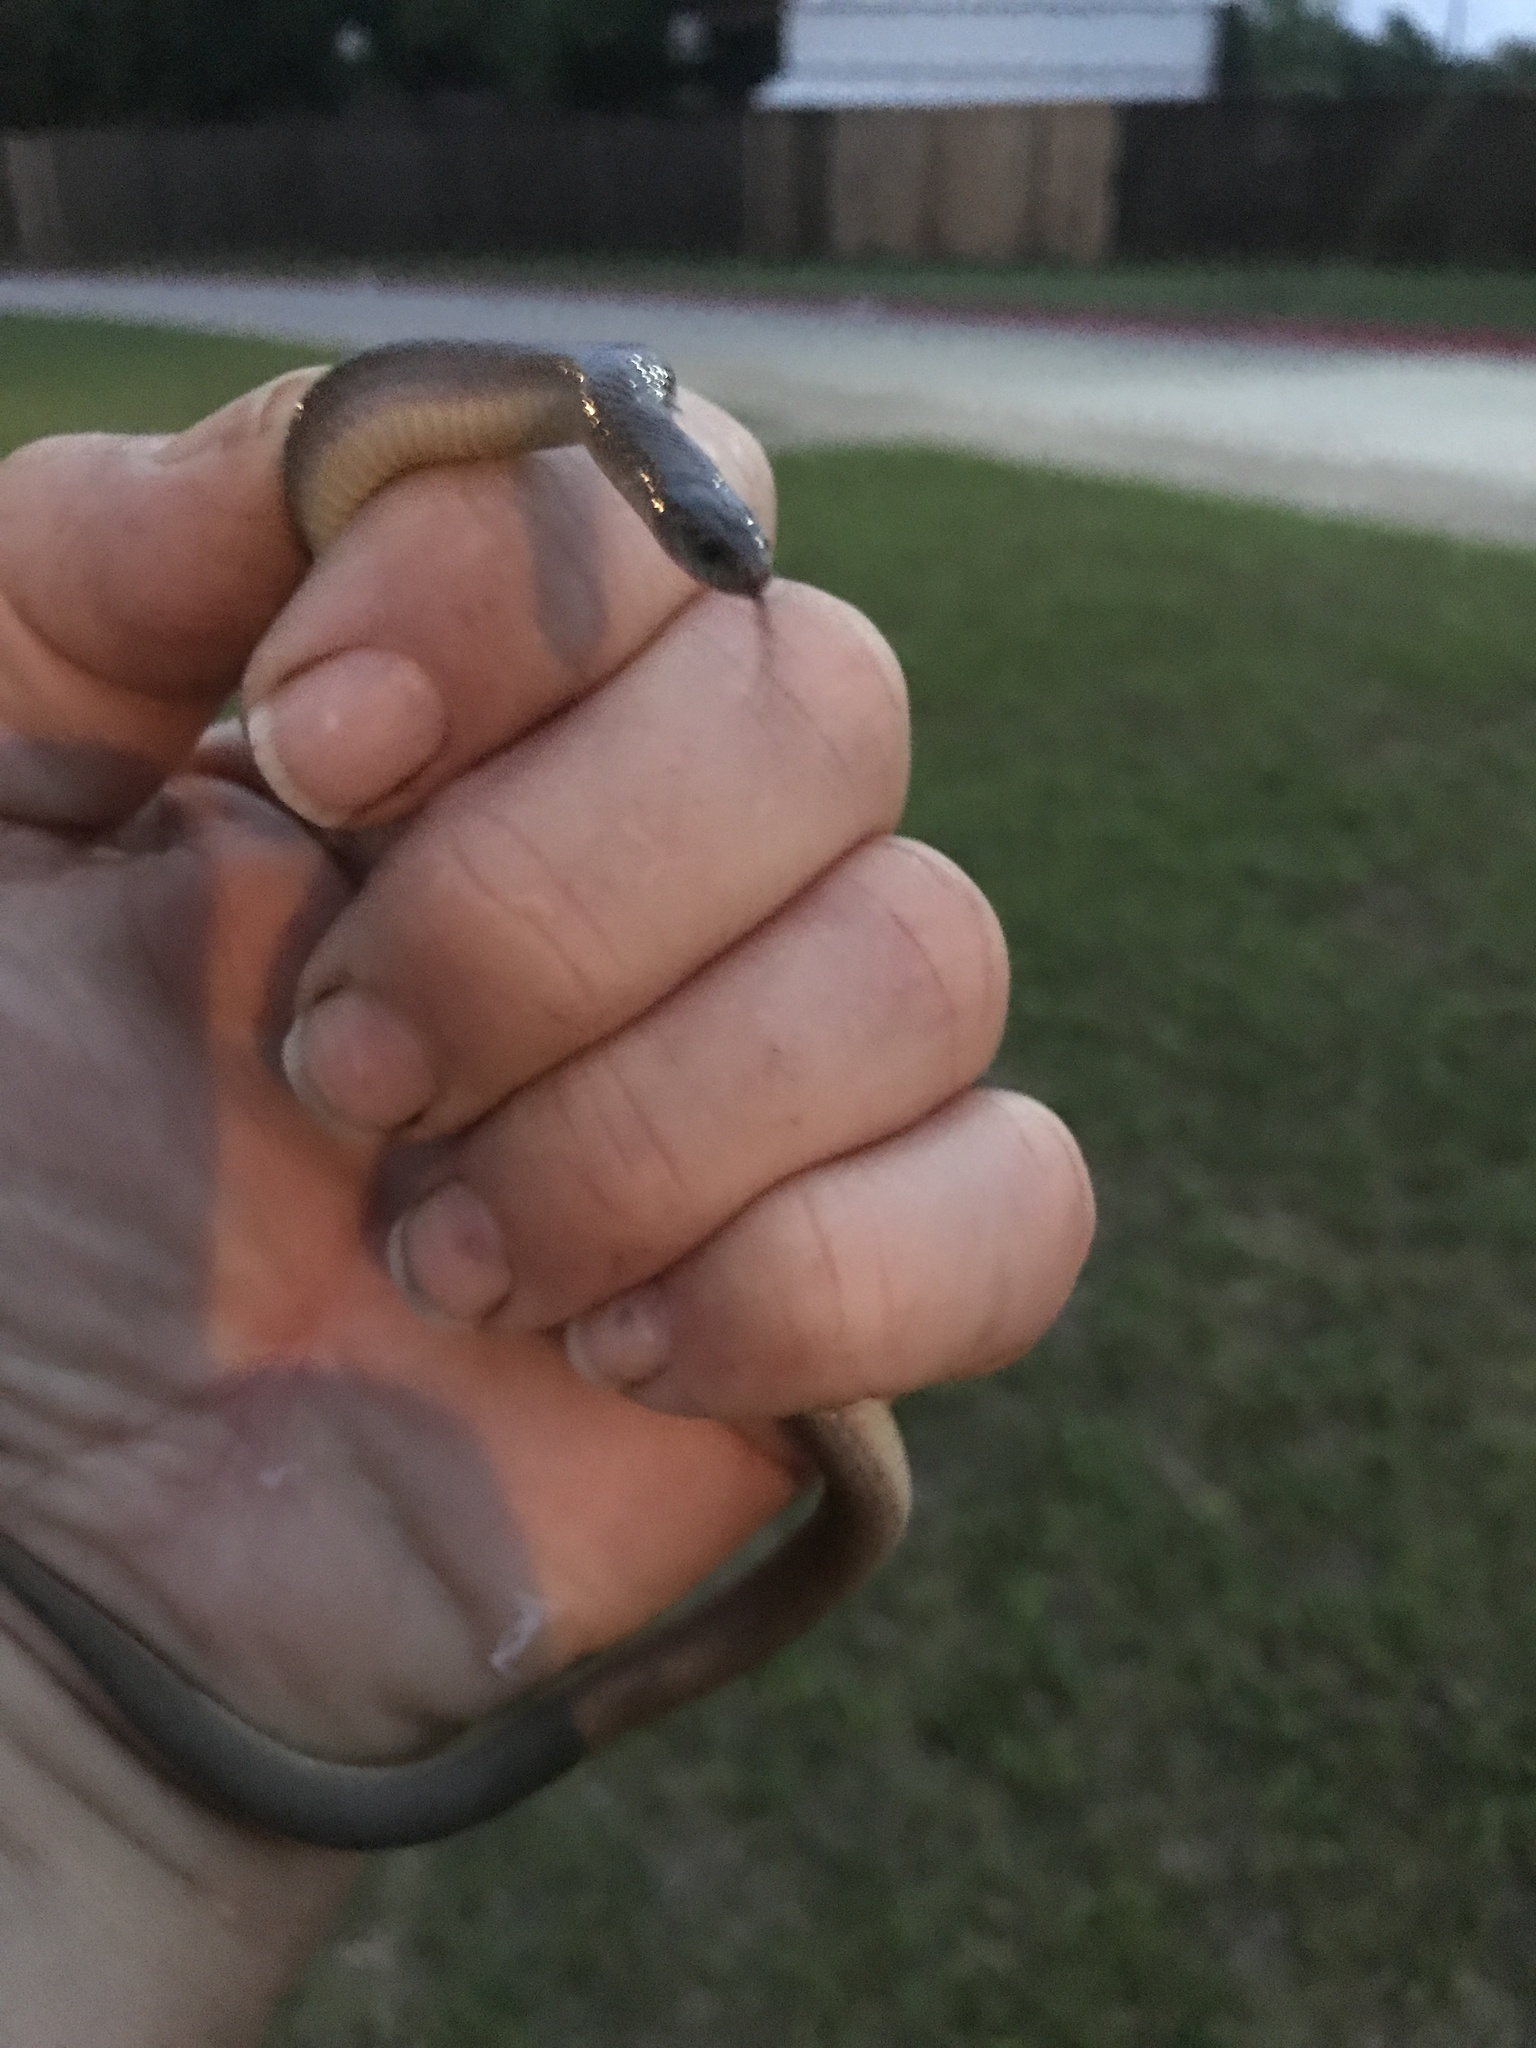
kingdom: Animalia
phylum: Chordata
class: Squamata
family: Colubridae
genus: Haldea
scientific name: Haldea striatula
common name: Rough earth snake
